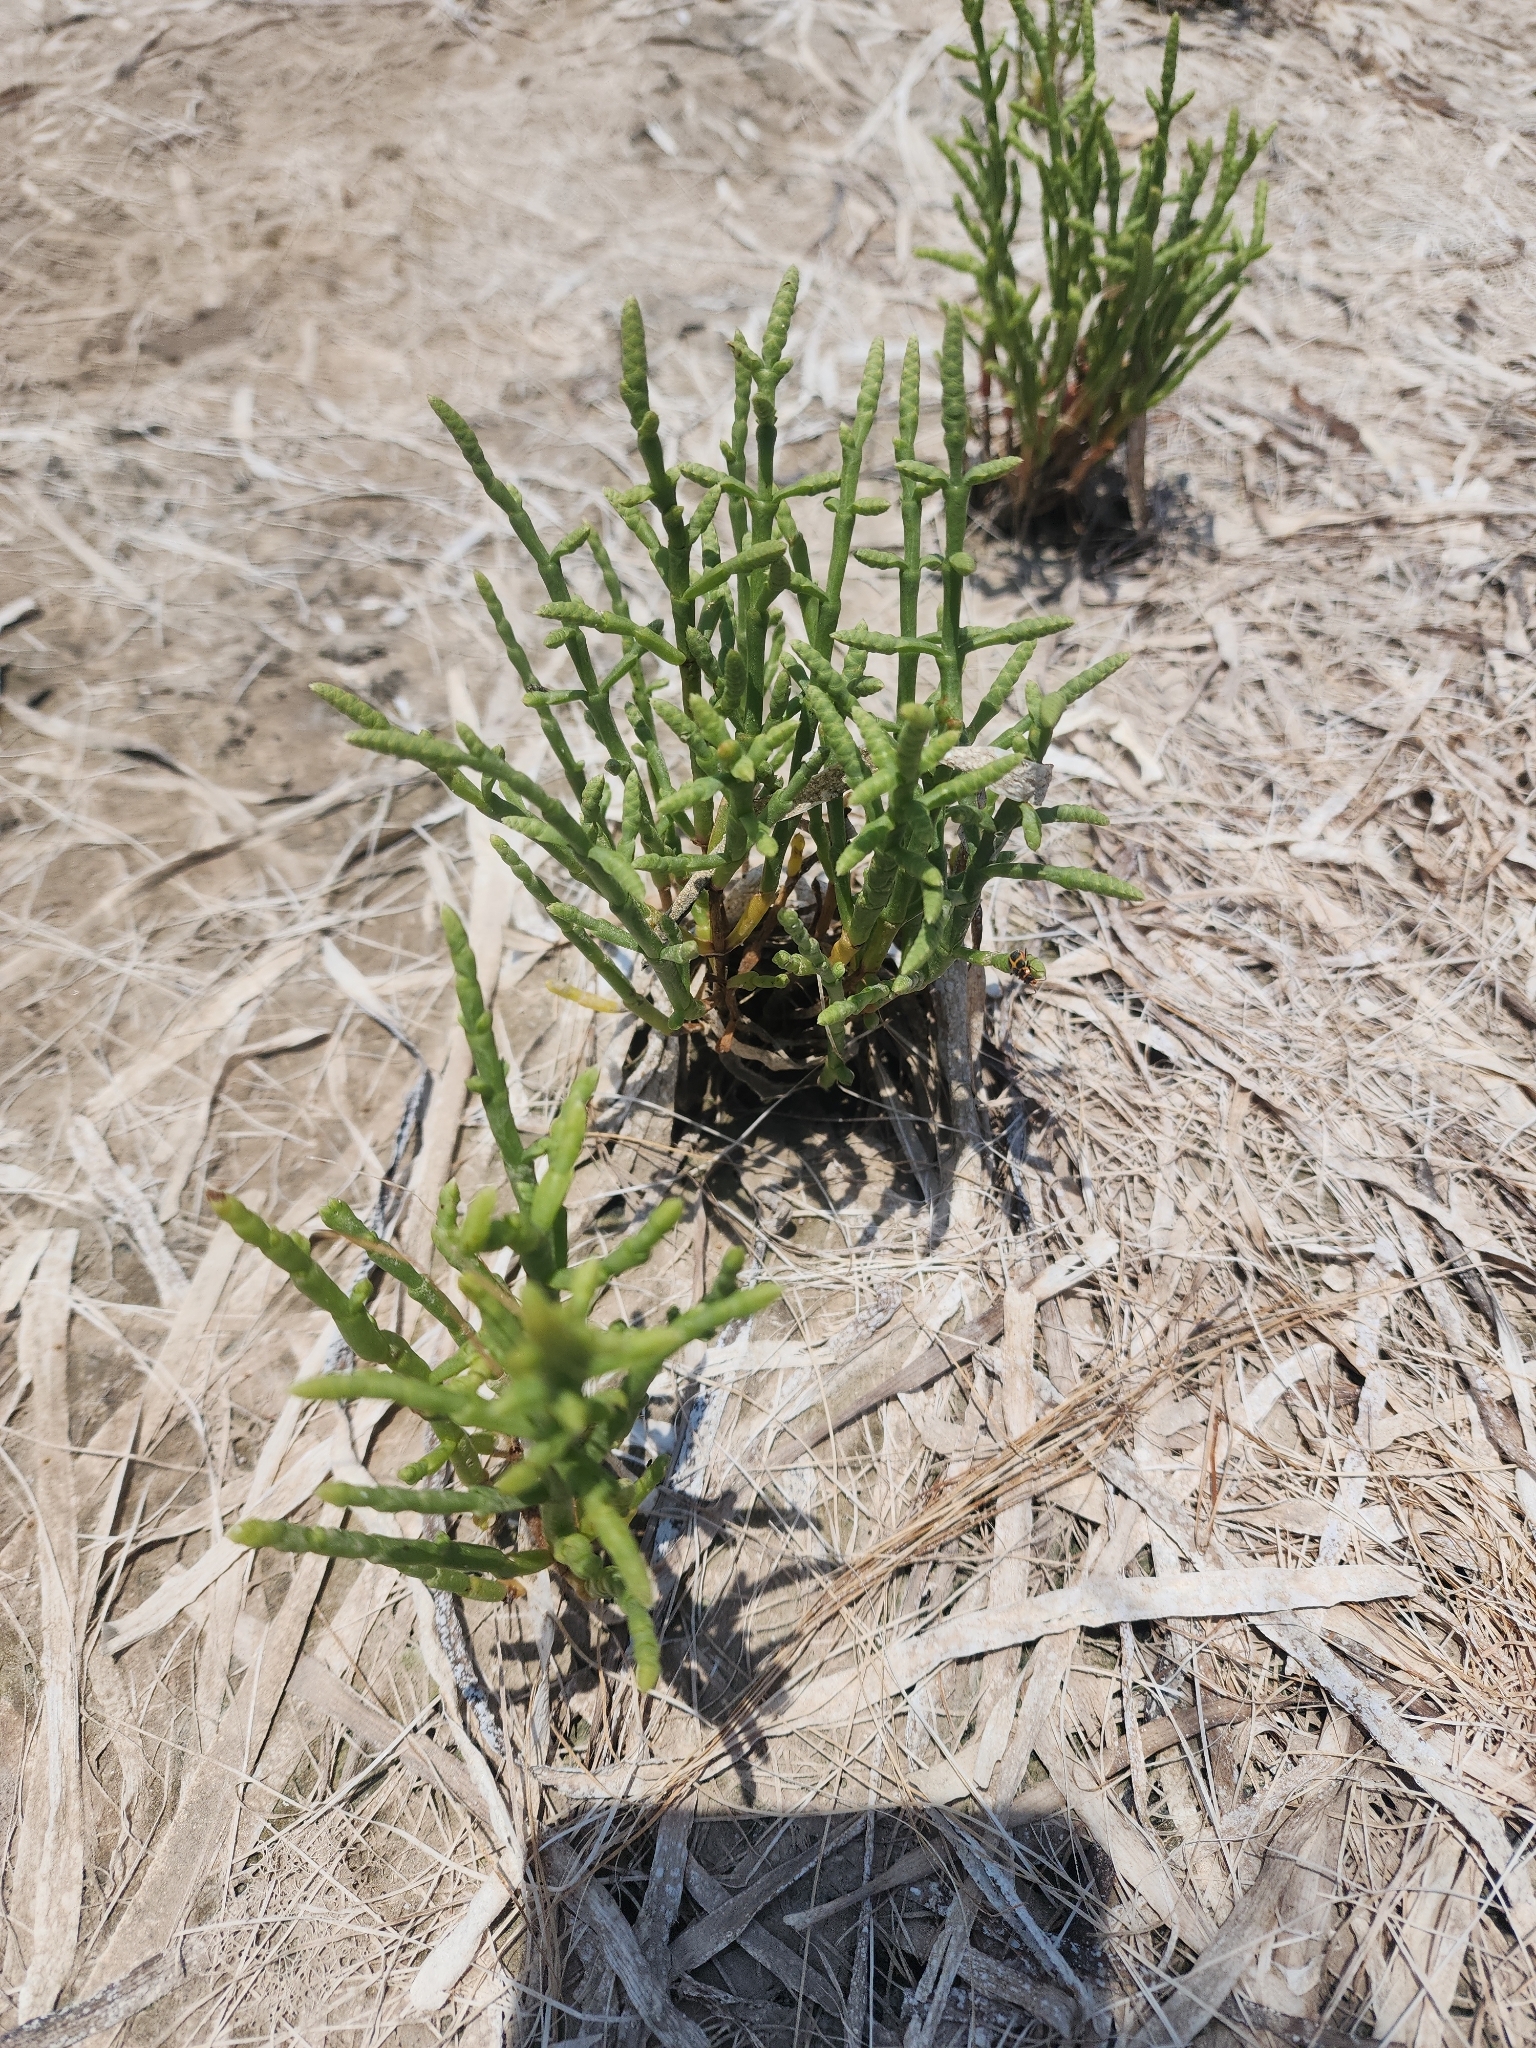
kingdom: Plantae
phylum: Tracheophyta
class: Magnoliopsida
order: Caryophyllales
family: Amaranthaceae
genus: Salicornia
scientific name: Salicornia bigelovii
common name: Dwarf glasswort
